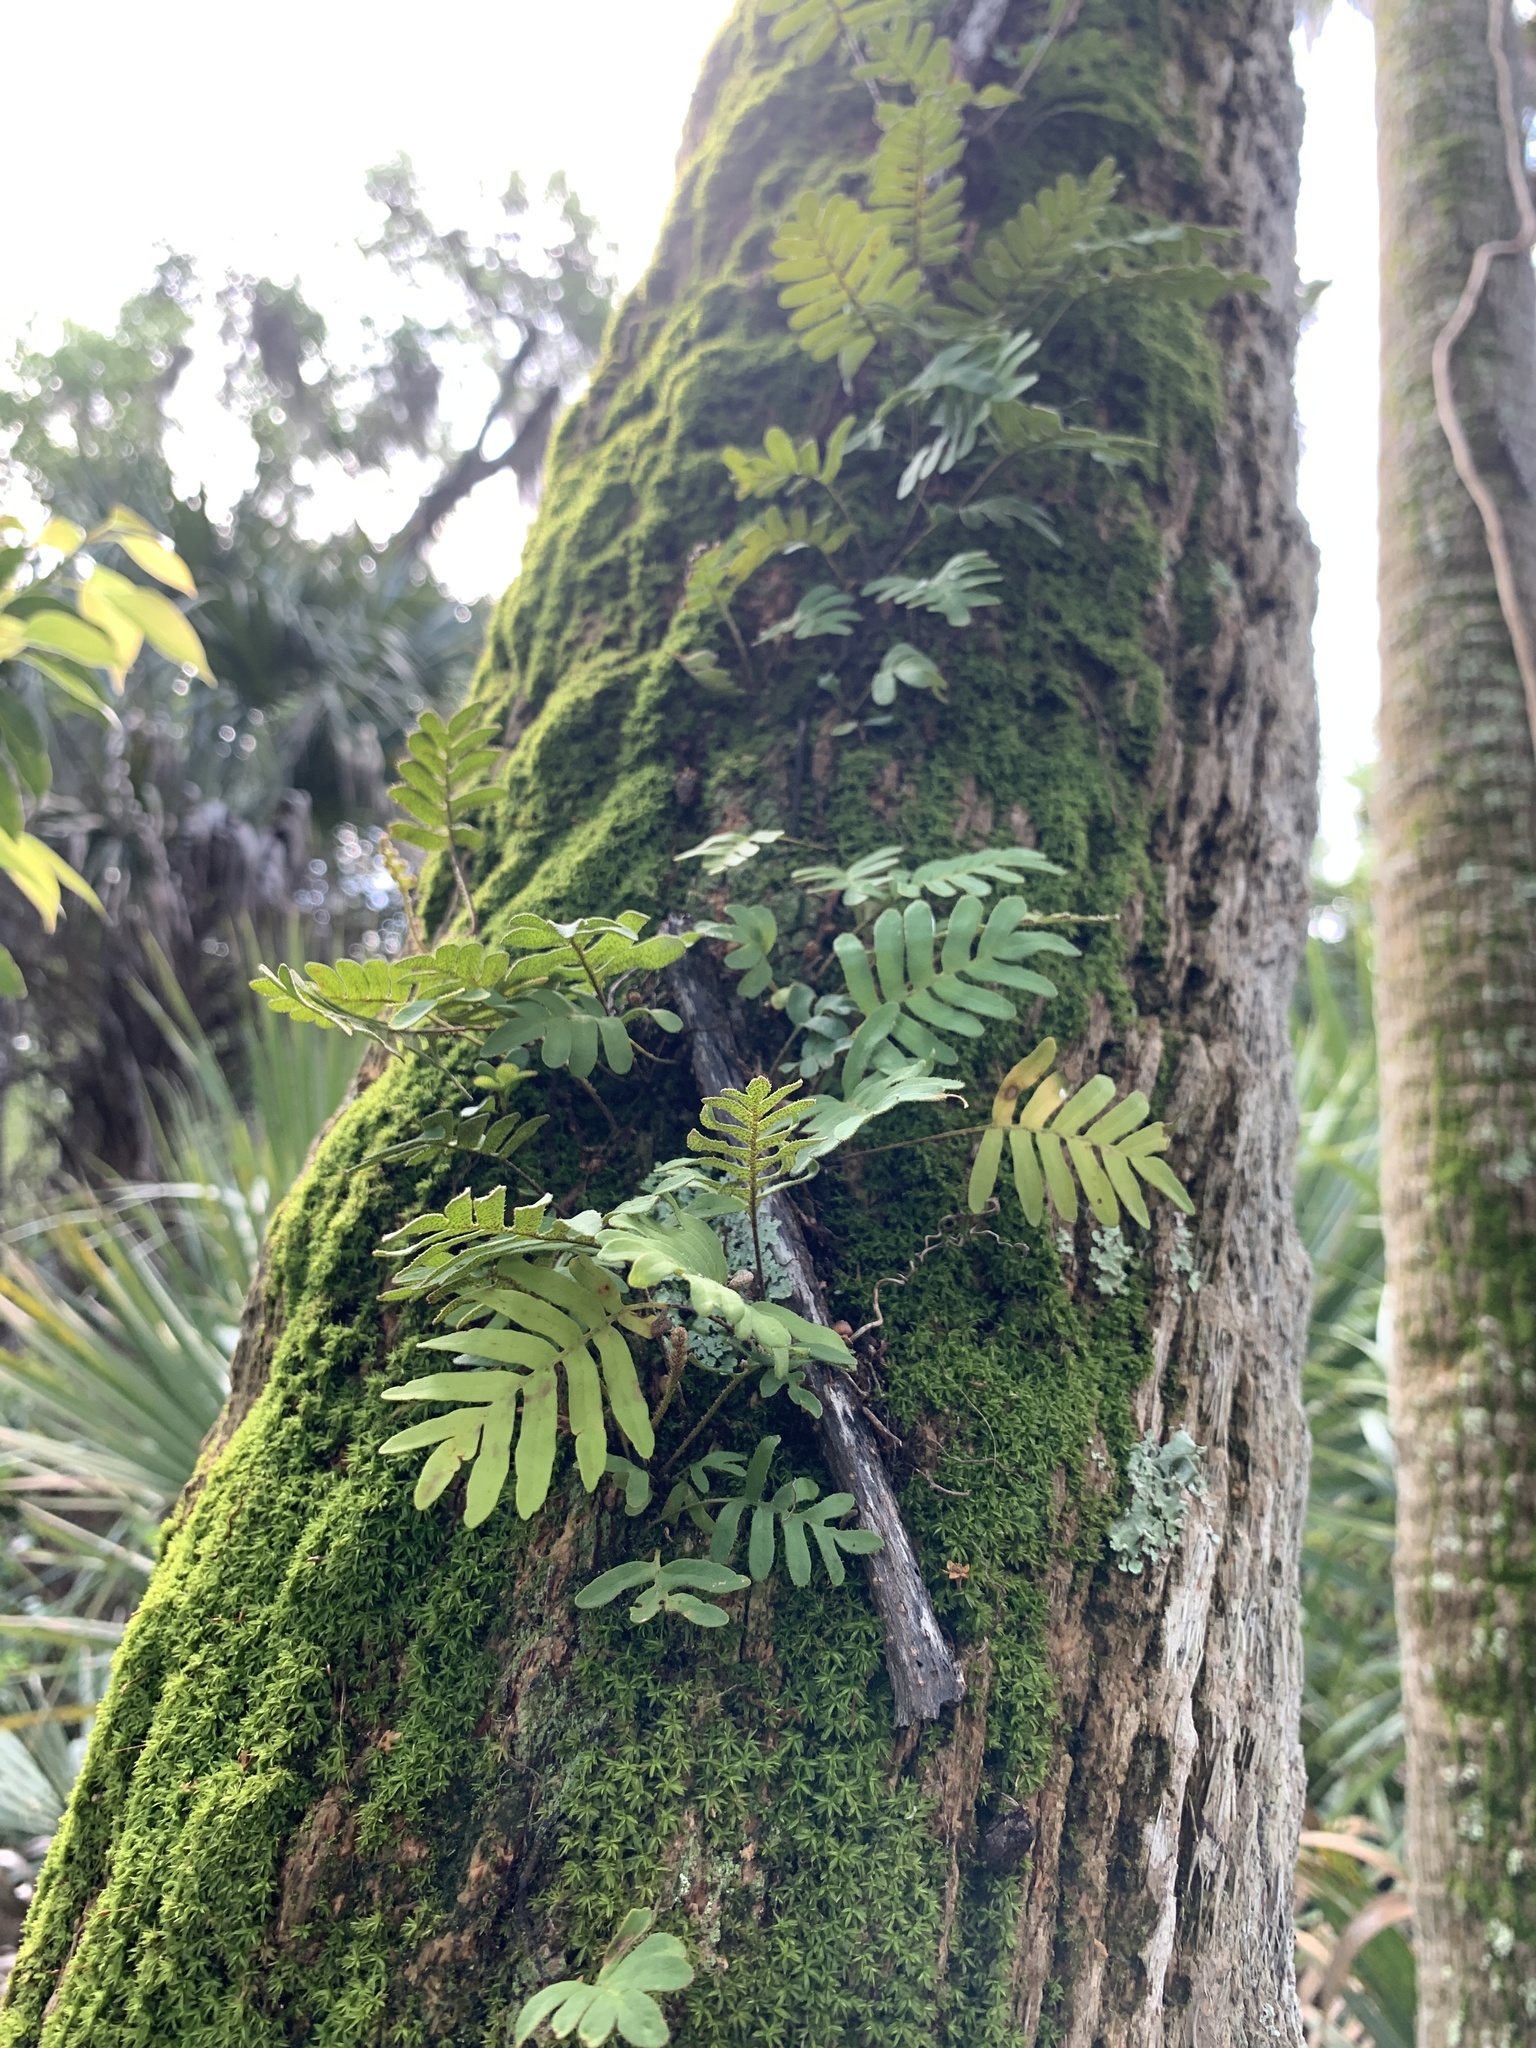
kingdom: Plantae
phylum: Tracheophyta
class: Polypodiopsida
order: Polypodiales
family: Polypodiaceae
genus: Pleopeltis
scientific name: Pleopeltis michauxiana
